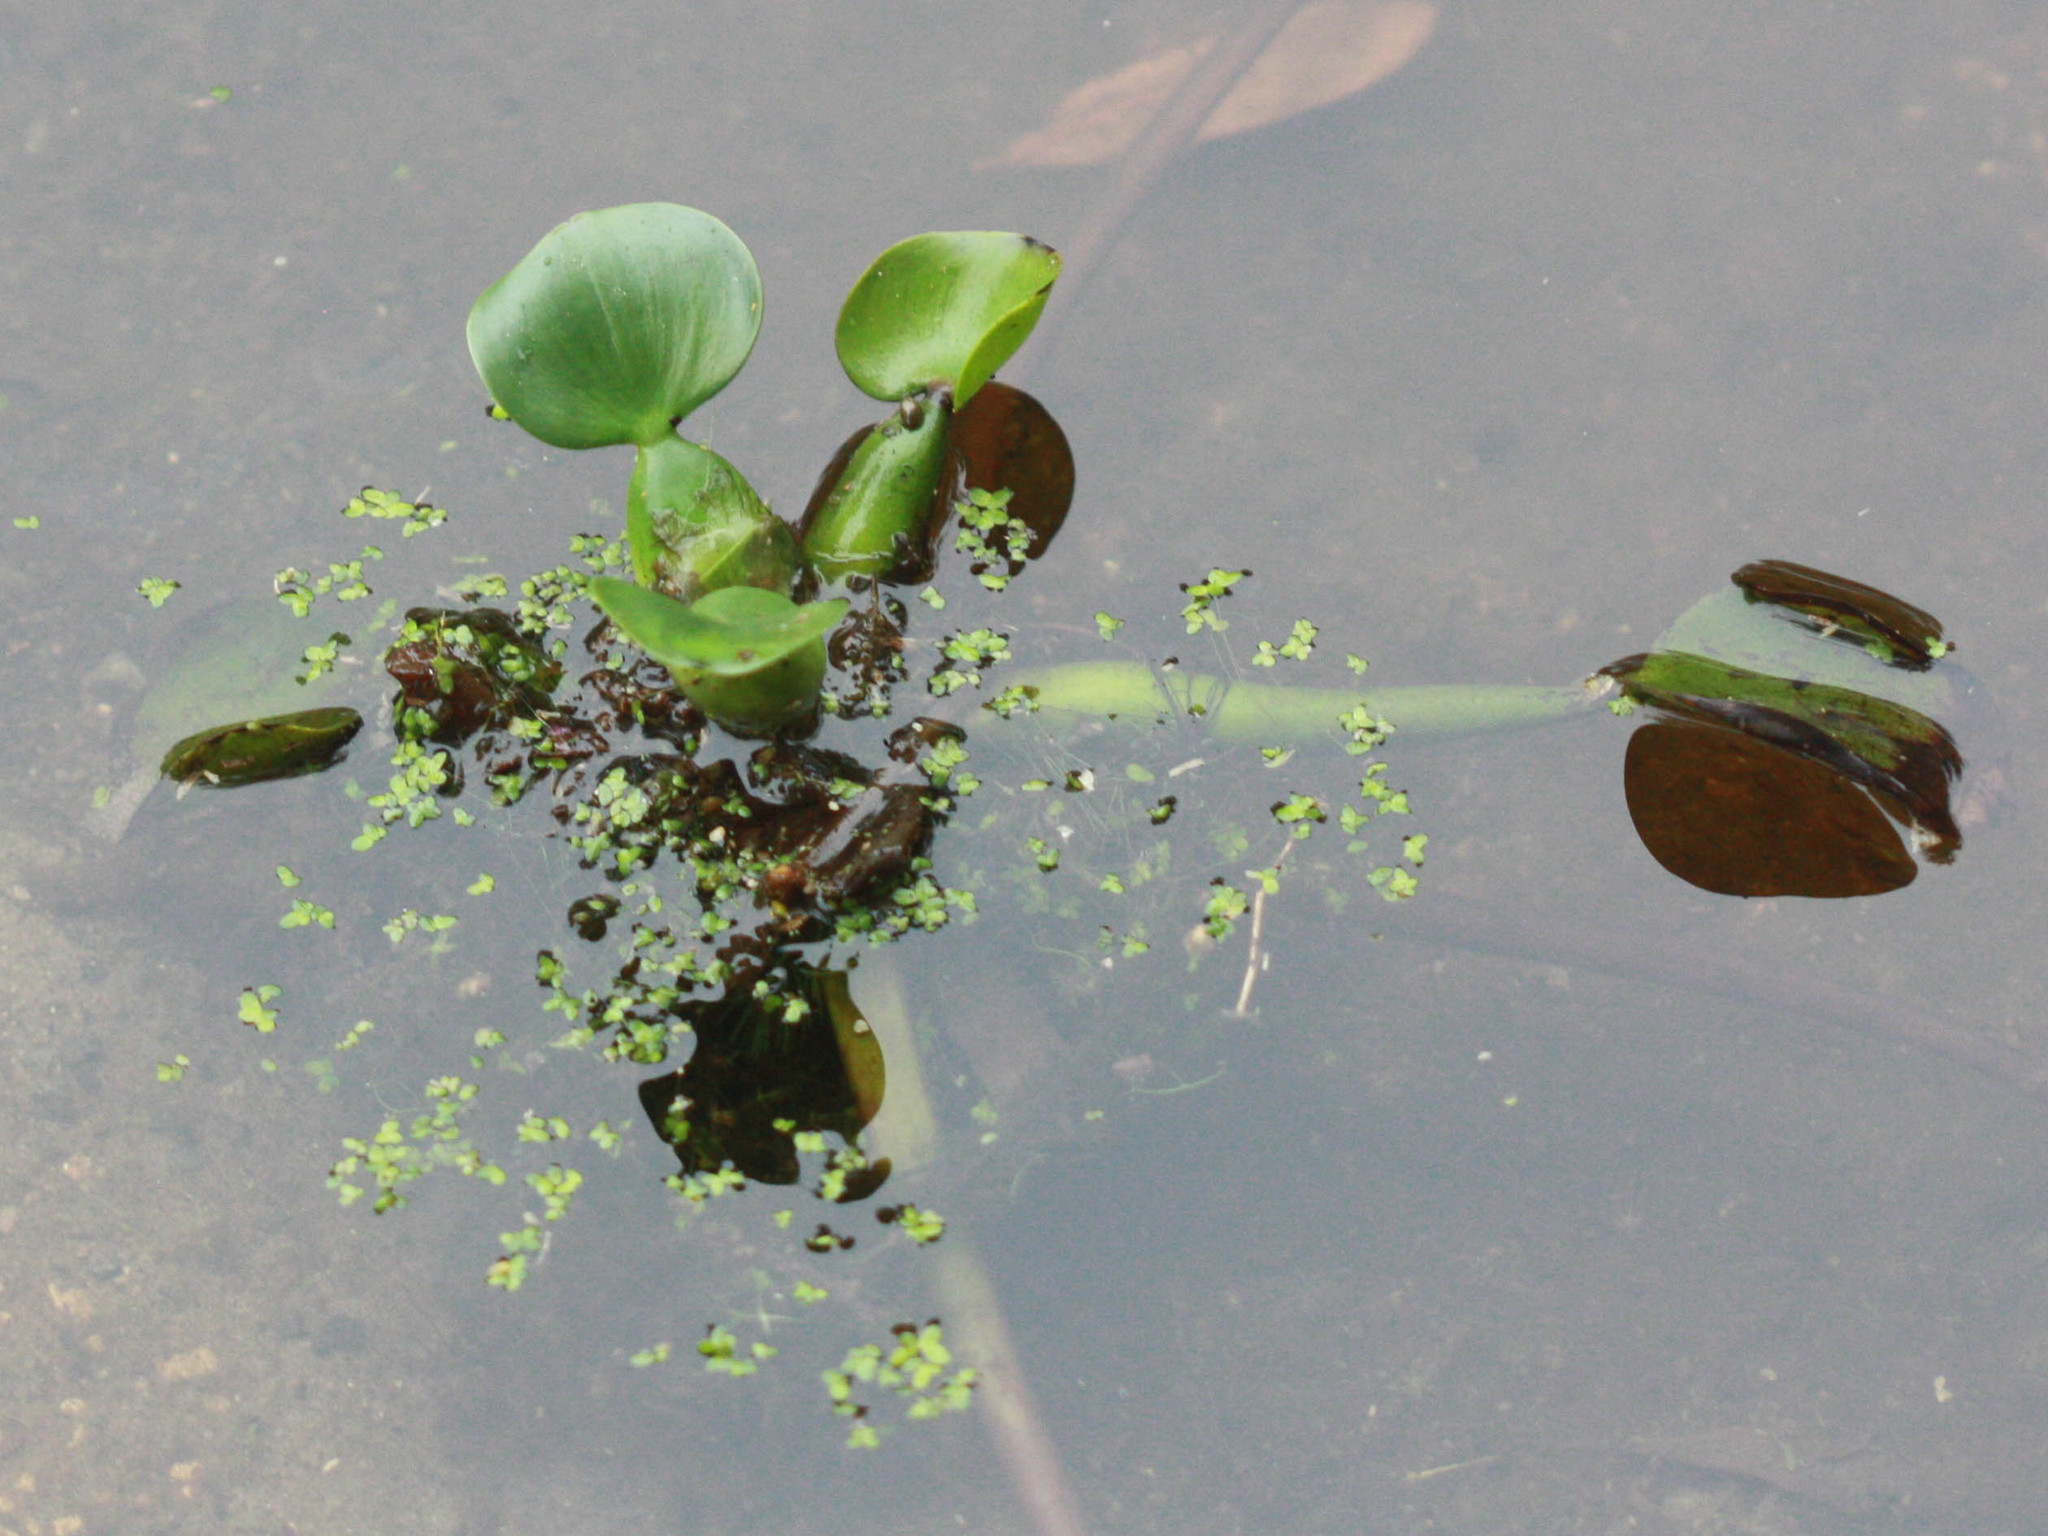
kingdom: Plantae
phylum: Tracheophyta
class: Liliopsida
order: Commelinales
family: Pontederiaceae
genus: Pontederia
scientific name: Pontederia crassipes
